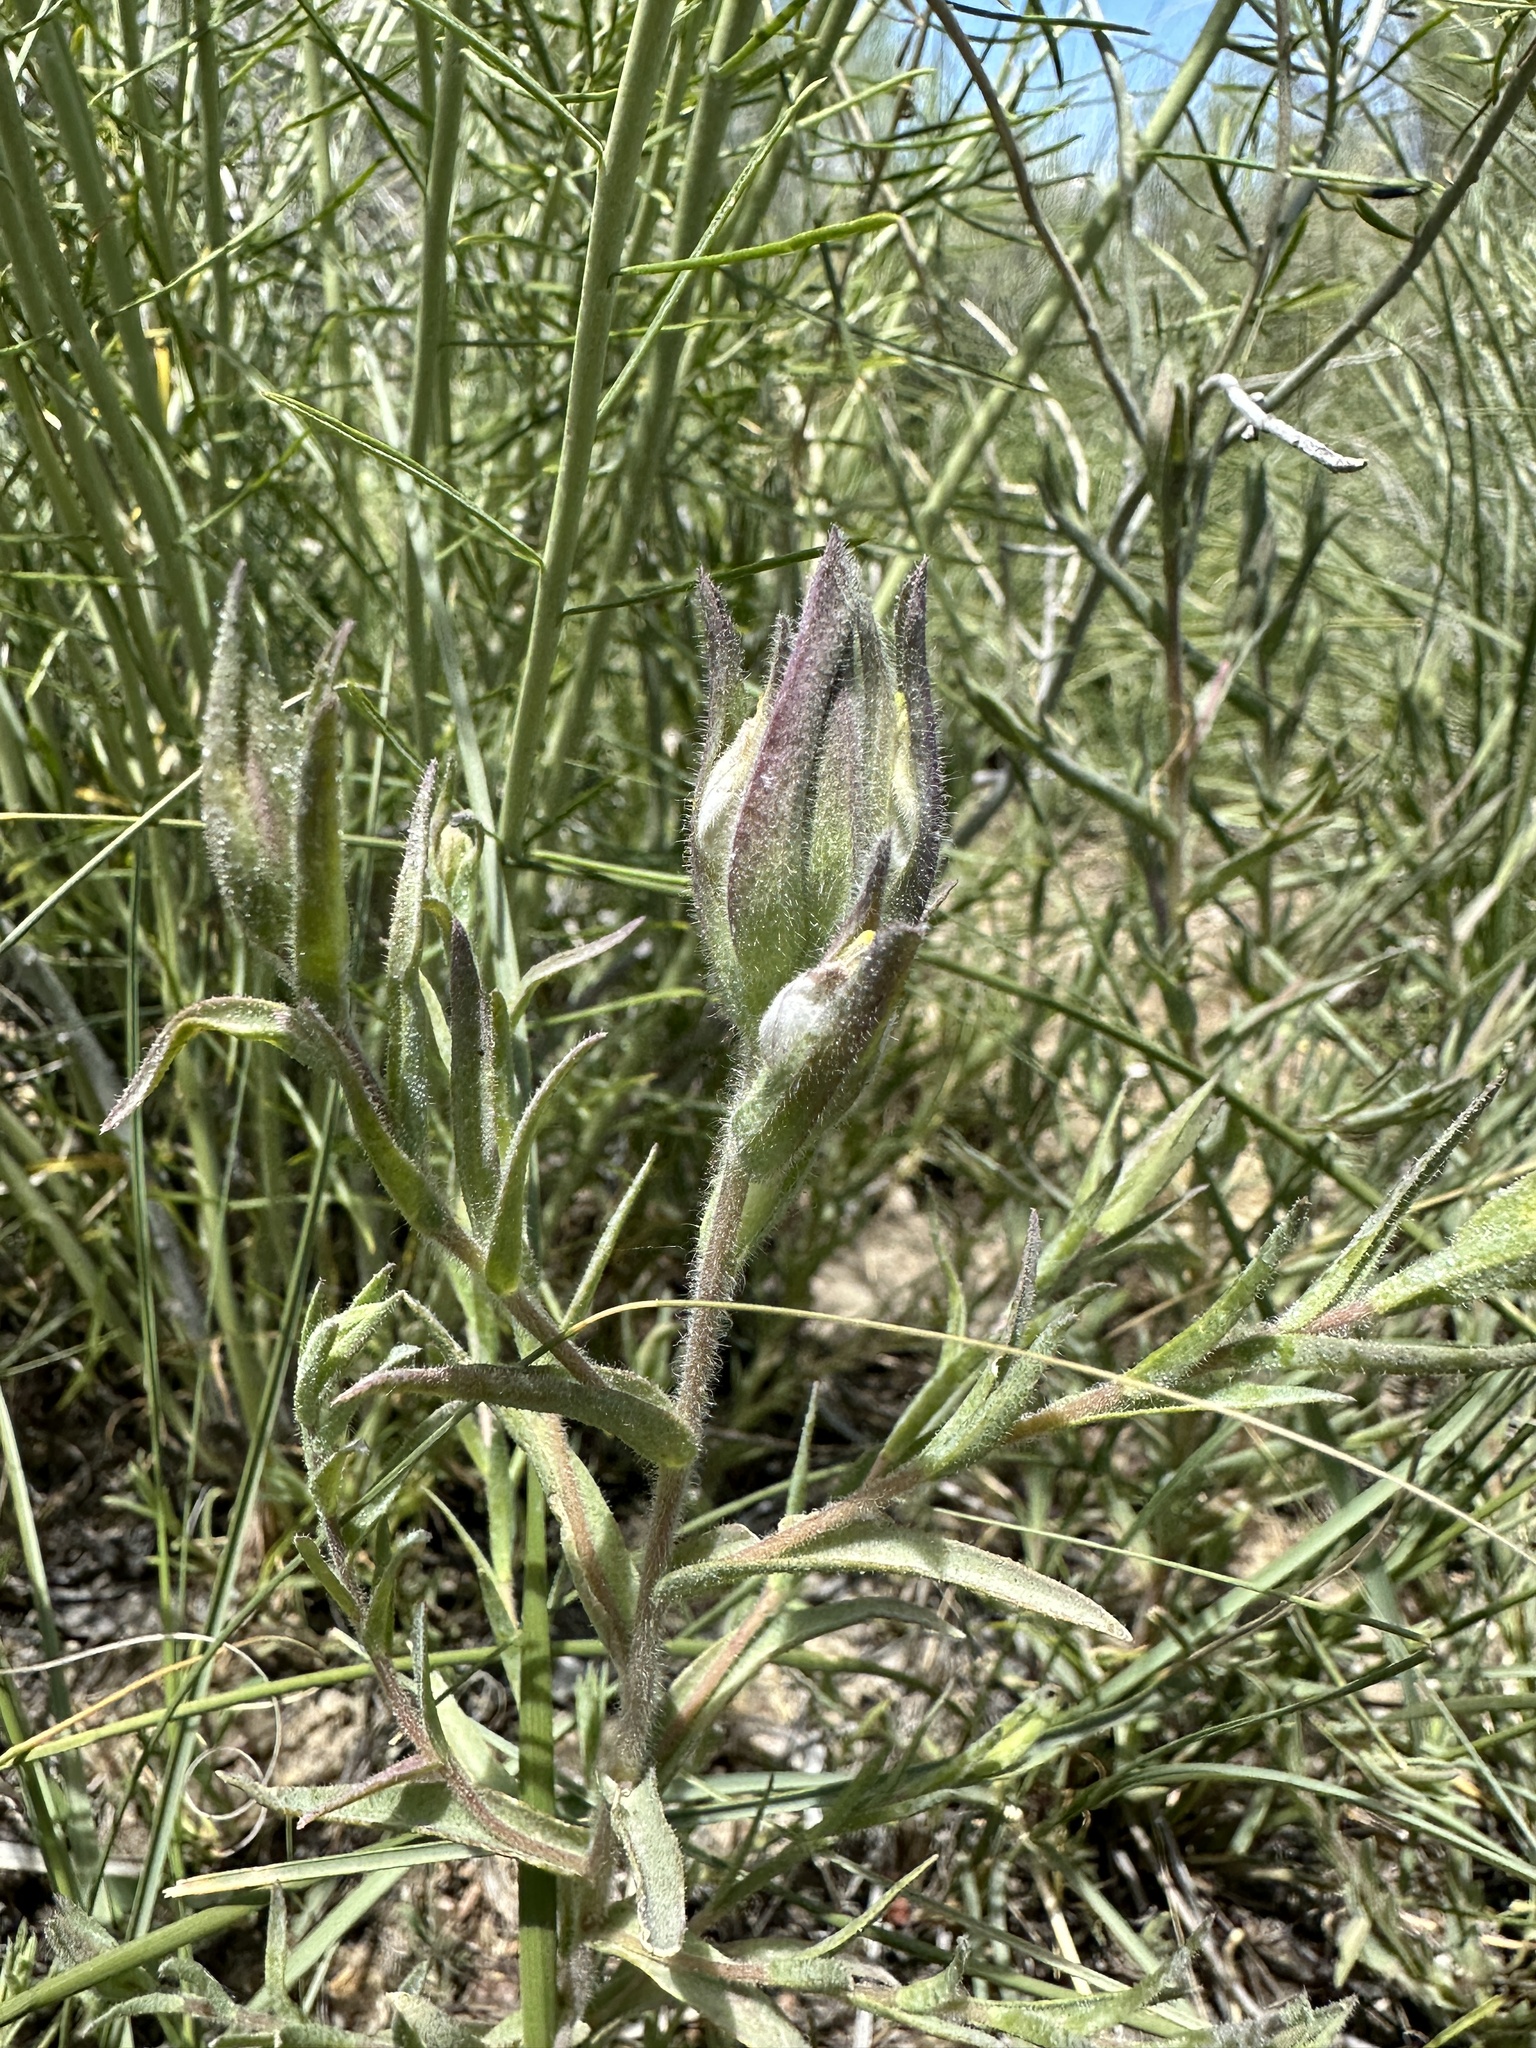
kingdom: Plantae
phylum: Tracheophyta
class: Magnoliopsida
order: Lamiales
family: Orobanchaceae
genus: Chloropyron
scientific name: Chloropyron maritimum
